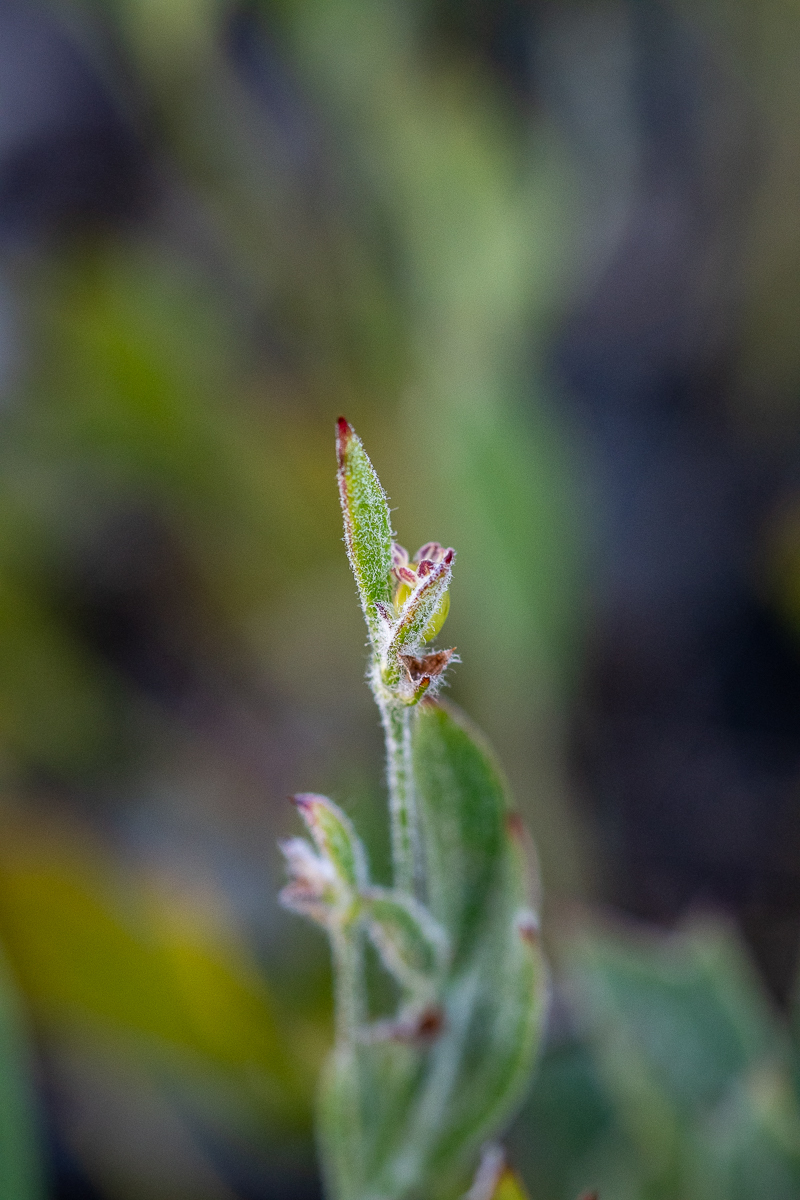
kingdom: Plantae
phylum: Tracheophyta
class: Magnoliopsida
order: Apiales
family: Apiaceae
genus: Centella
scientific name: Centella difformis
